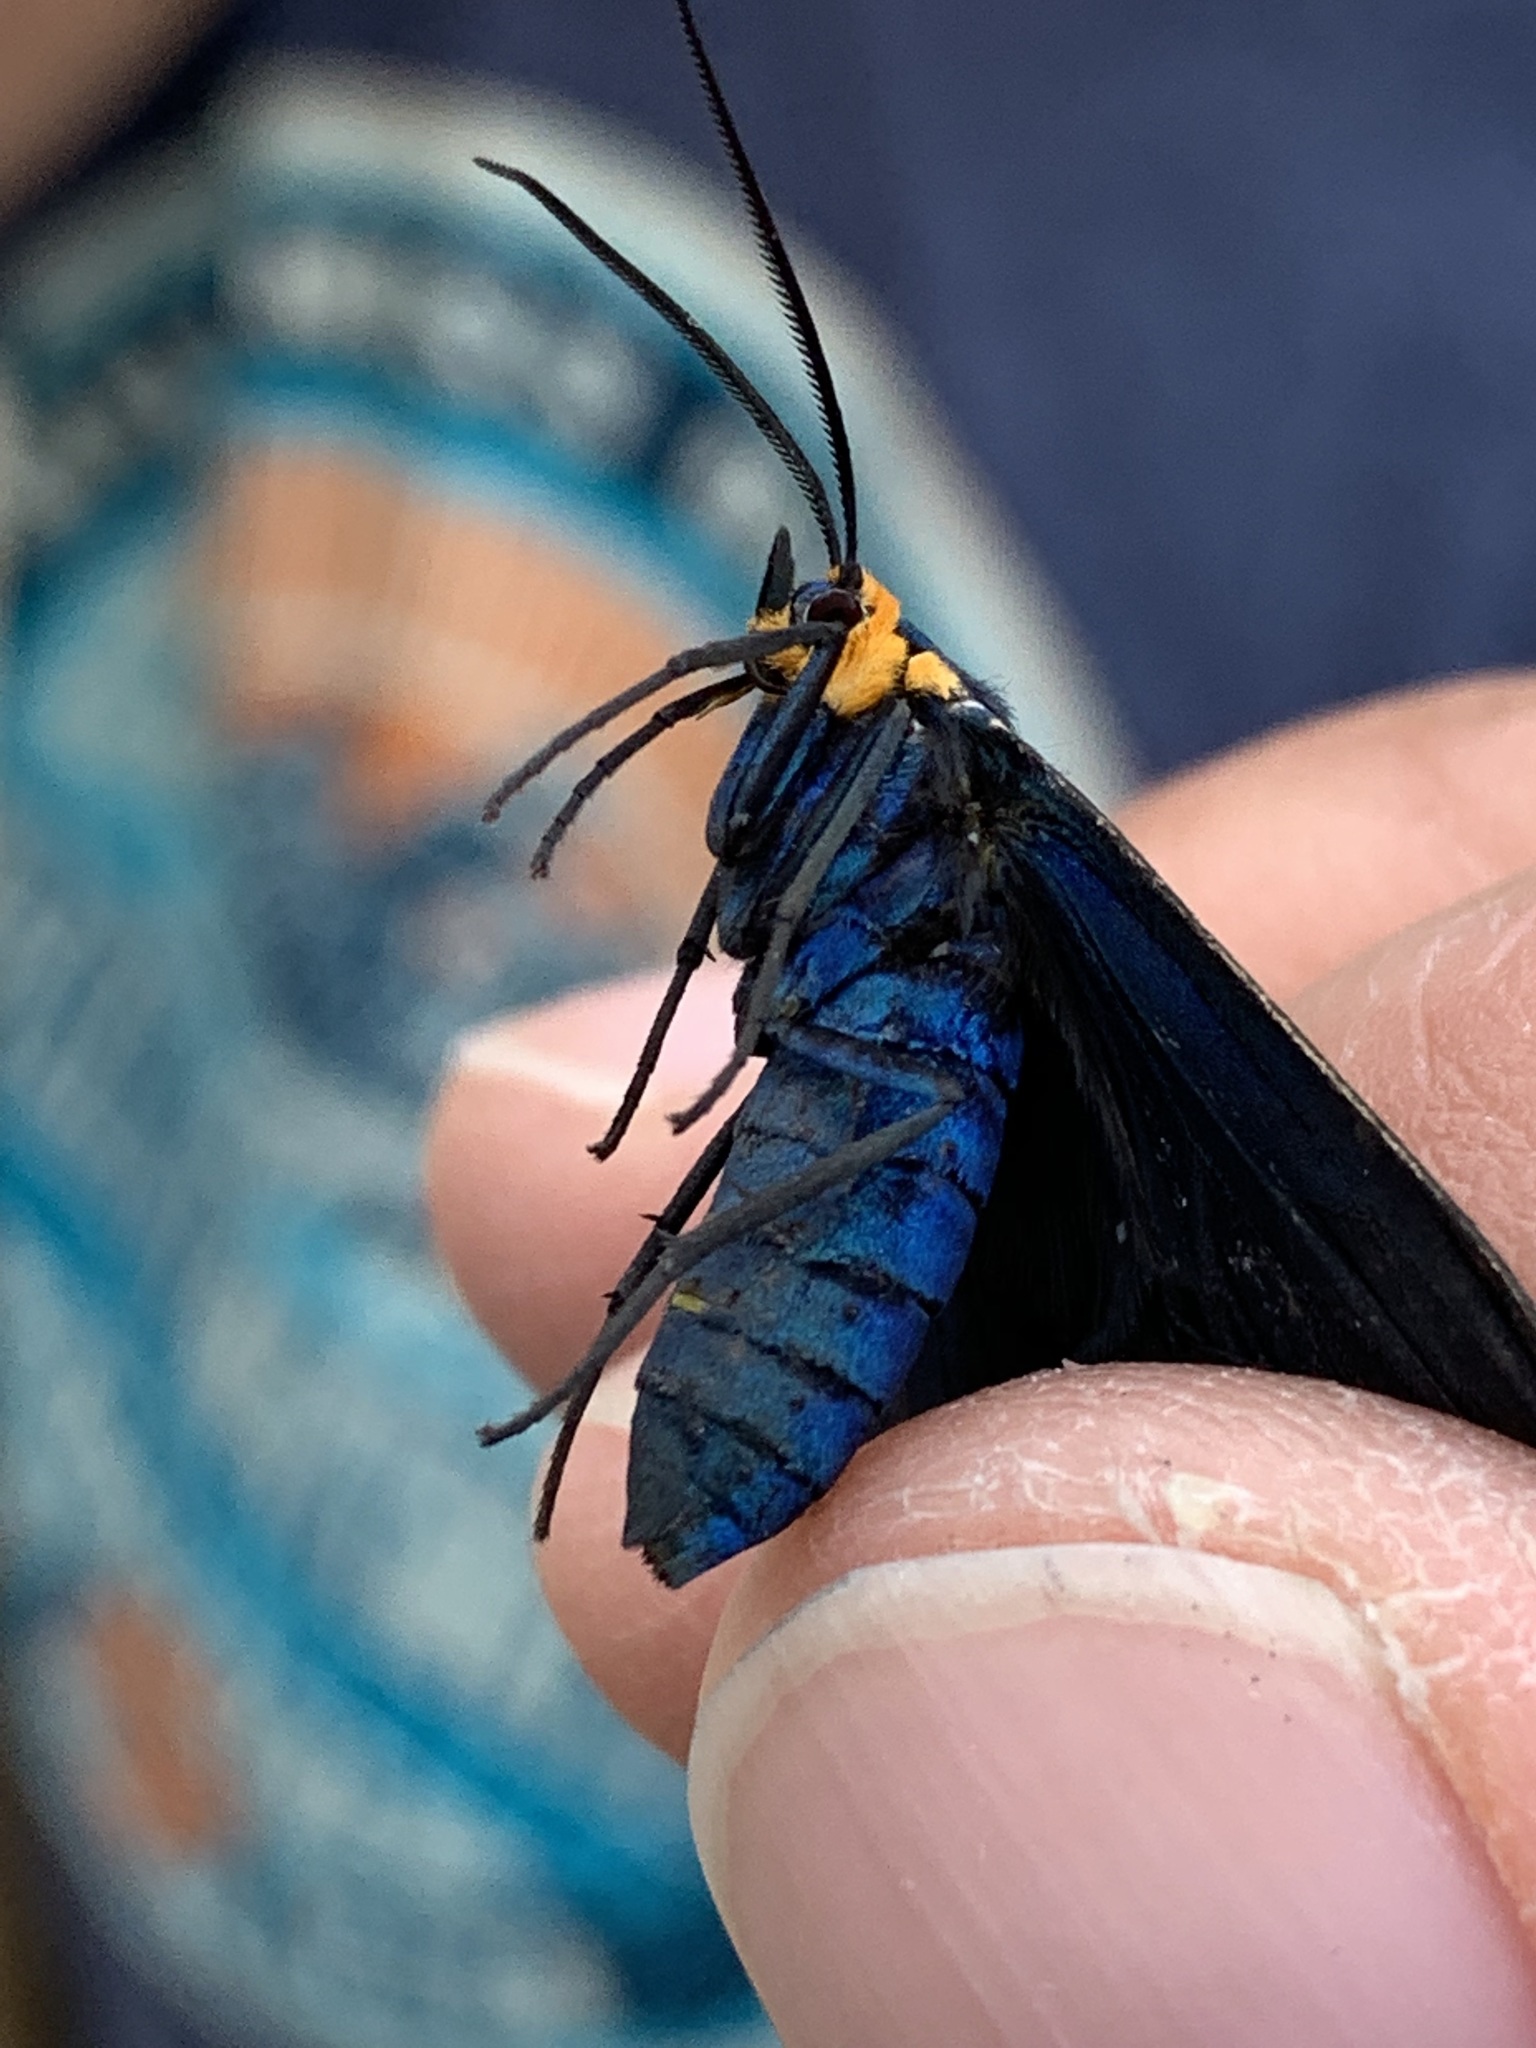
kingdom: Animalia
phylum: Arthropoda
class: Insecta
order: Lepidoptera
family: Erebidae
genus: Ctenucha
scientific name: Ctenucha virginica
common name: Virginia ctenucha moth
